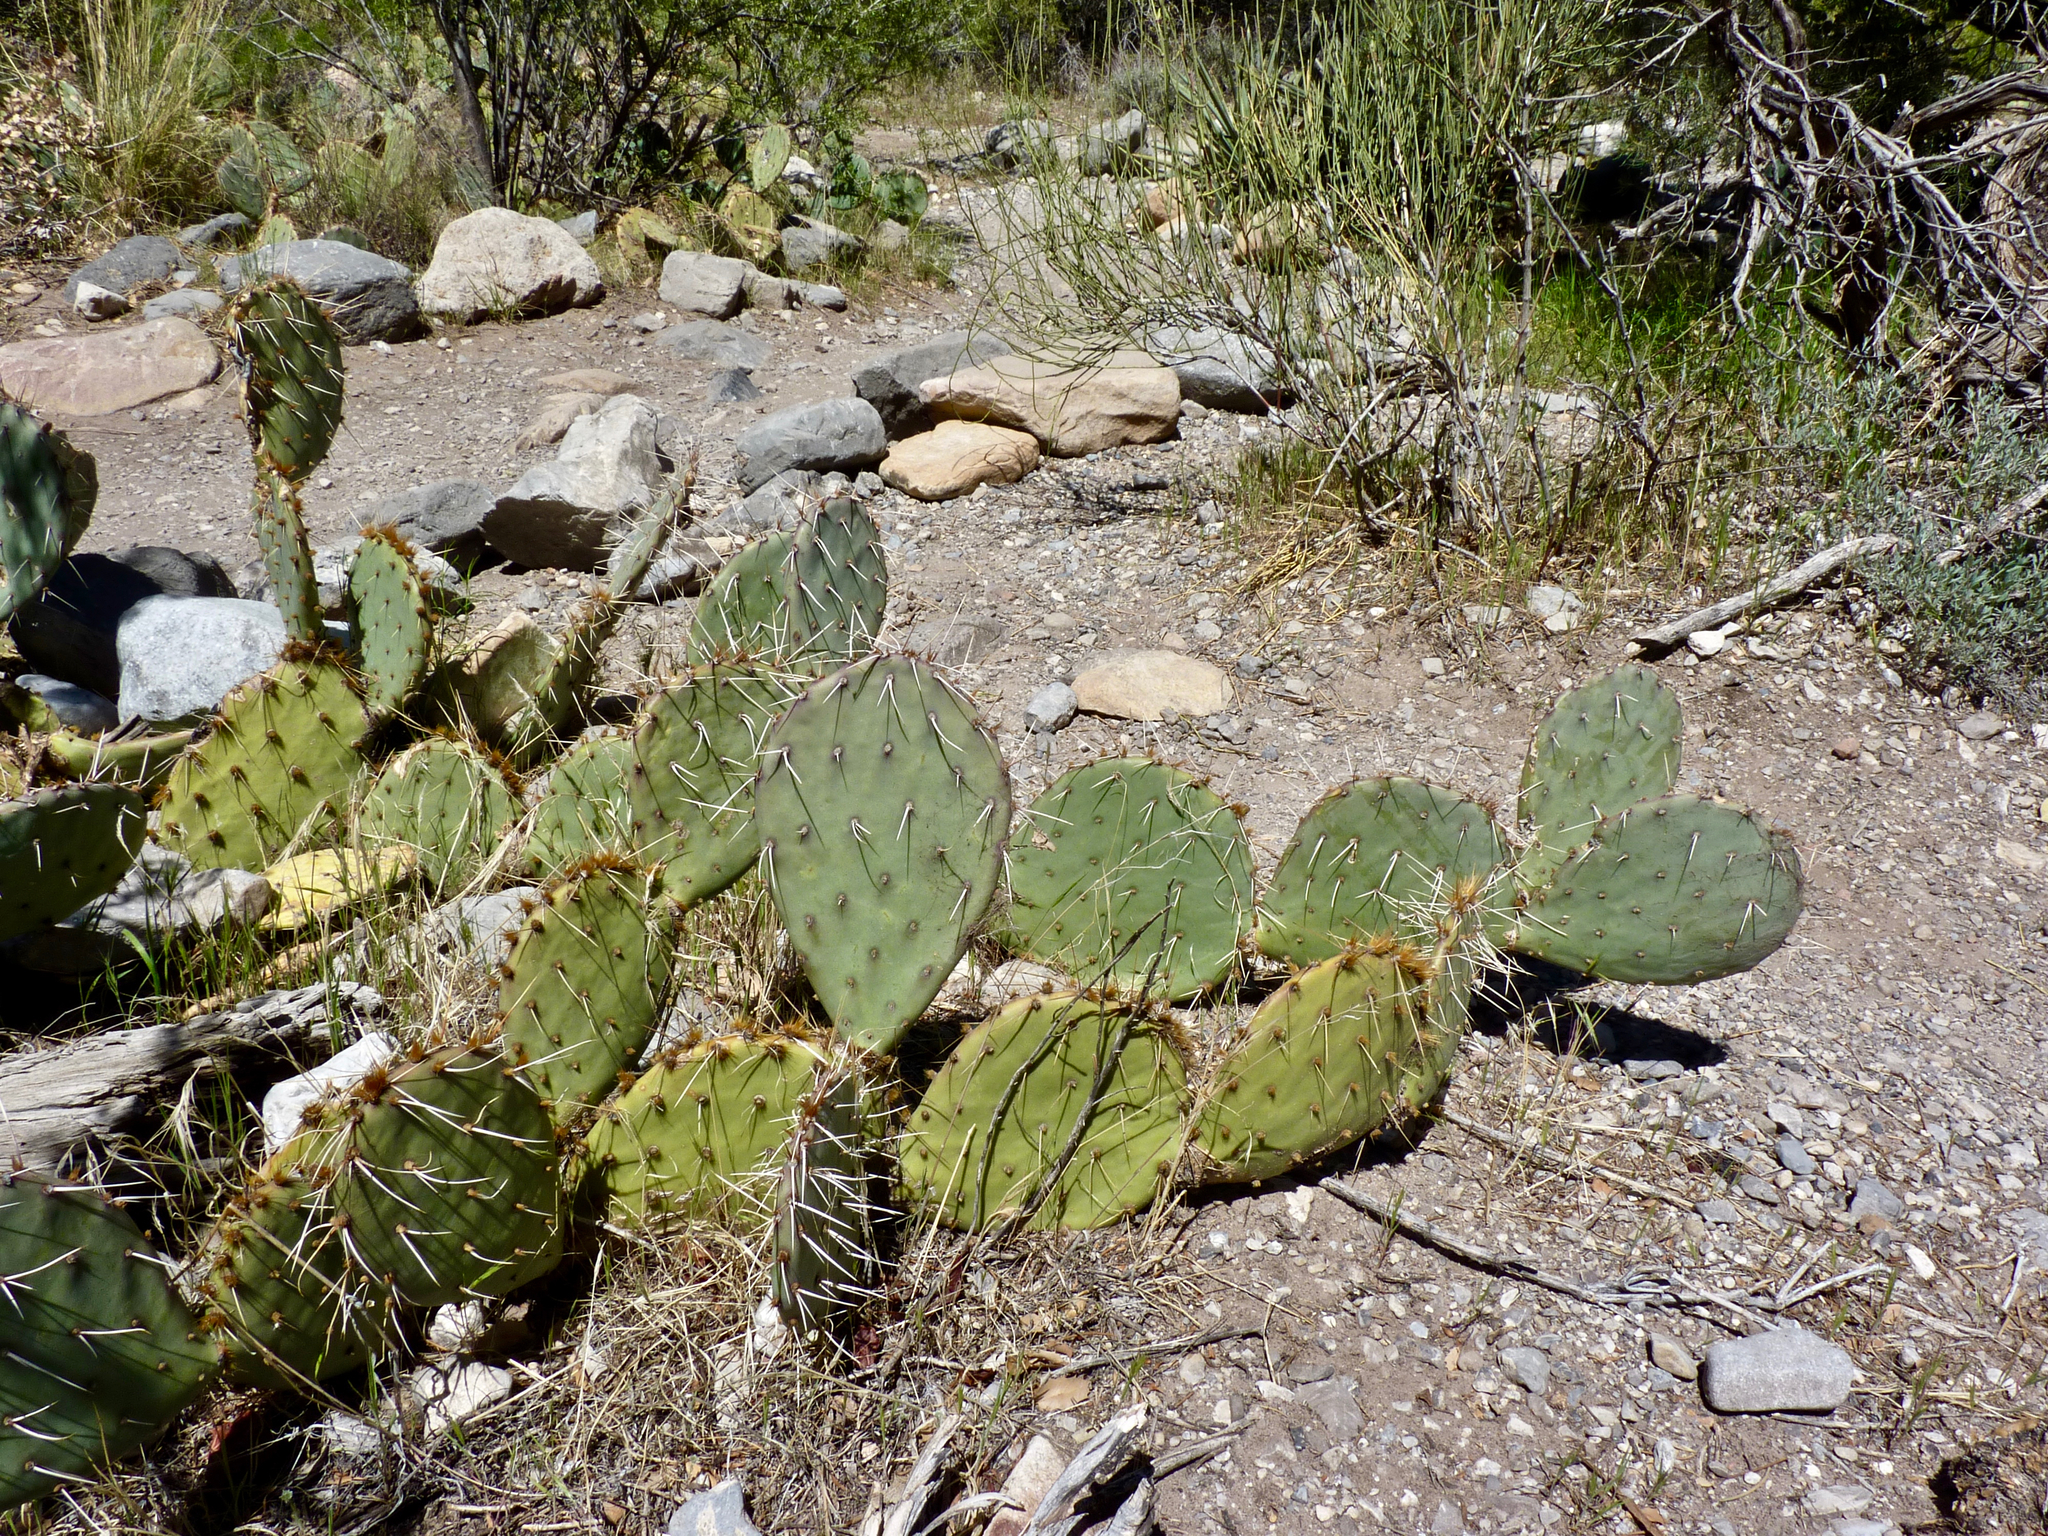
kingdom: Plantae
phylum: Tracheophyta
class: Magnoliopsida
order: Caryophyllales
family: Cactaceae
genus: Opuntia
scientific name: Opuntia phaeacantha
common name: New mexico prickly-pear
